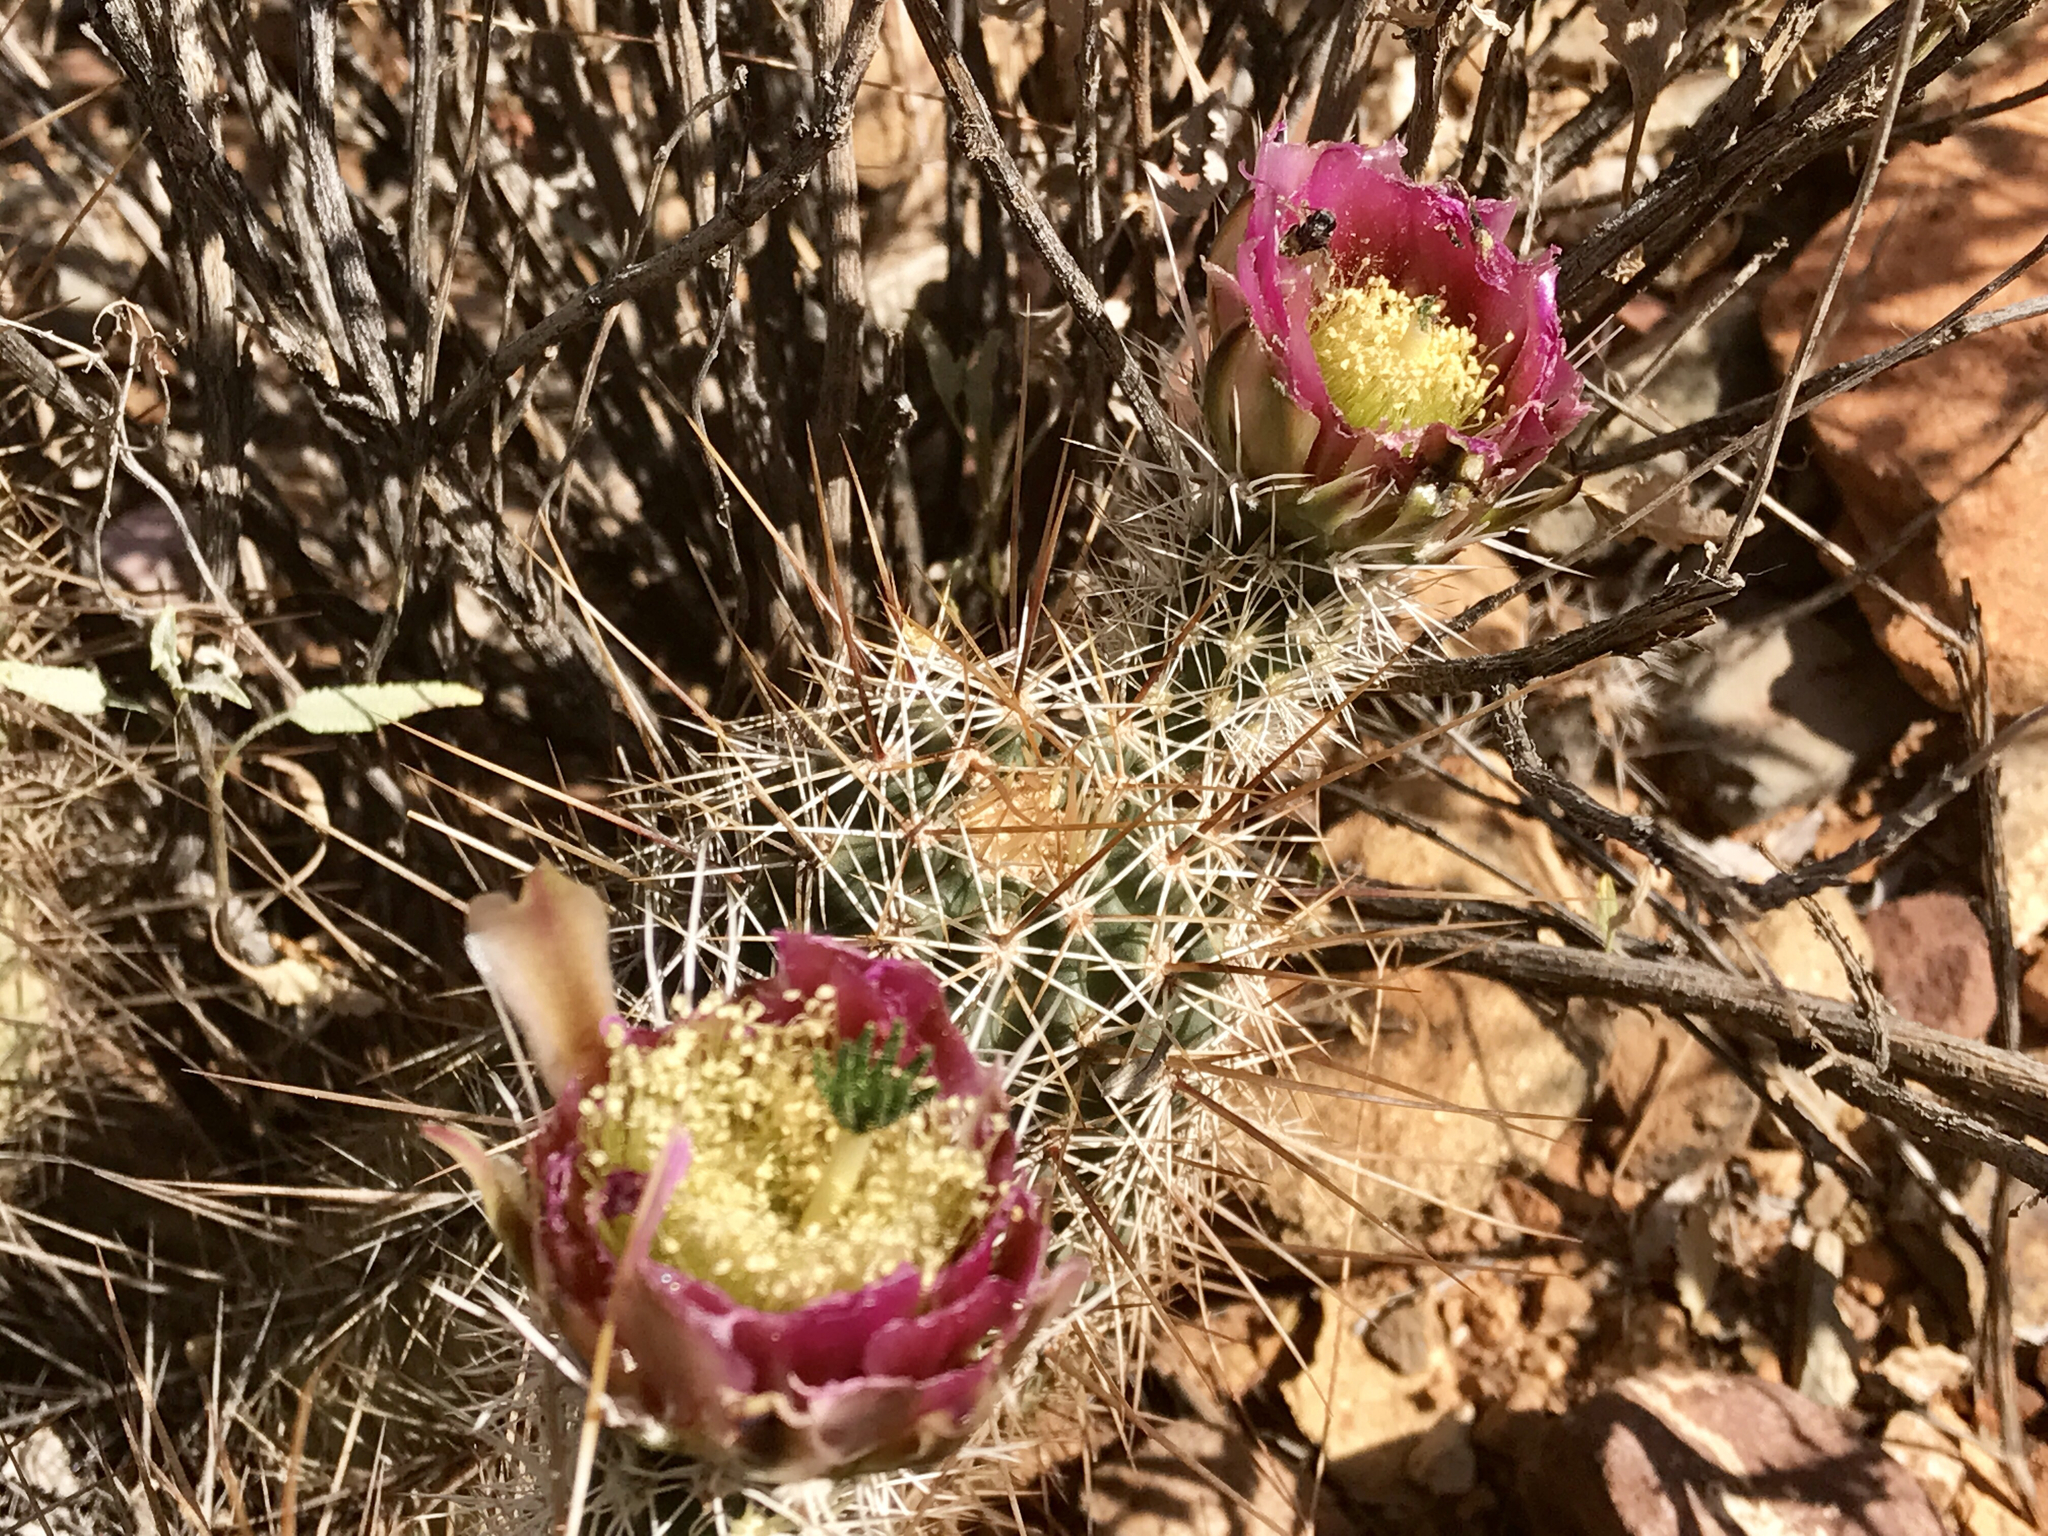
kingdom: Plantae
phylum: Tracheophyta
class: Magnoliopsida
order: Caryophyllales
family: Cactaceae
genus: Echinocereus
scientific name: Echinocereus fasciculatus
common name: Bundle hedgehog
